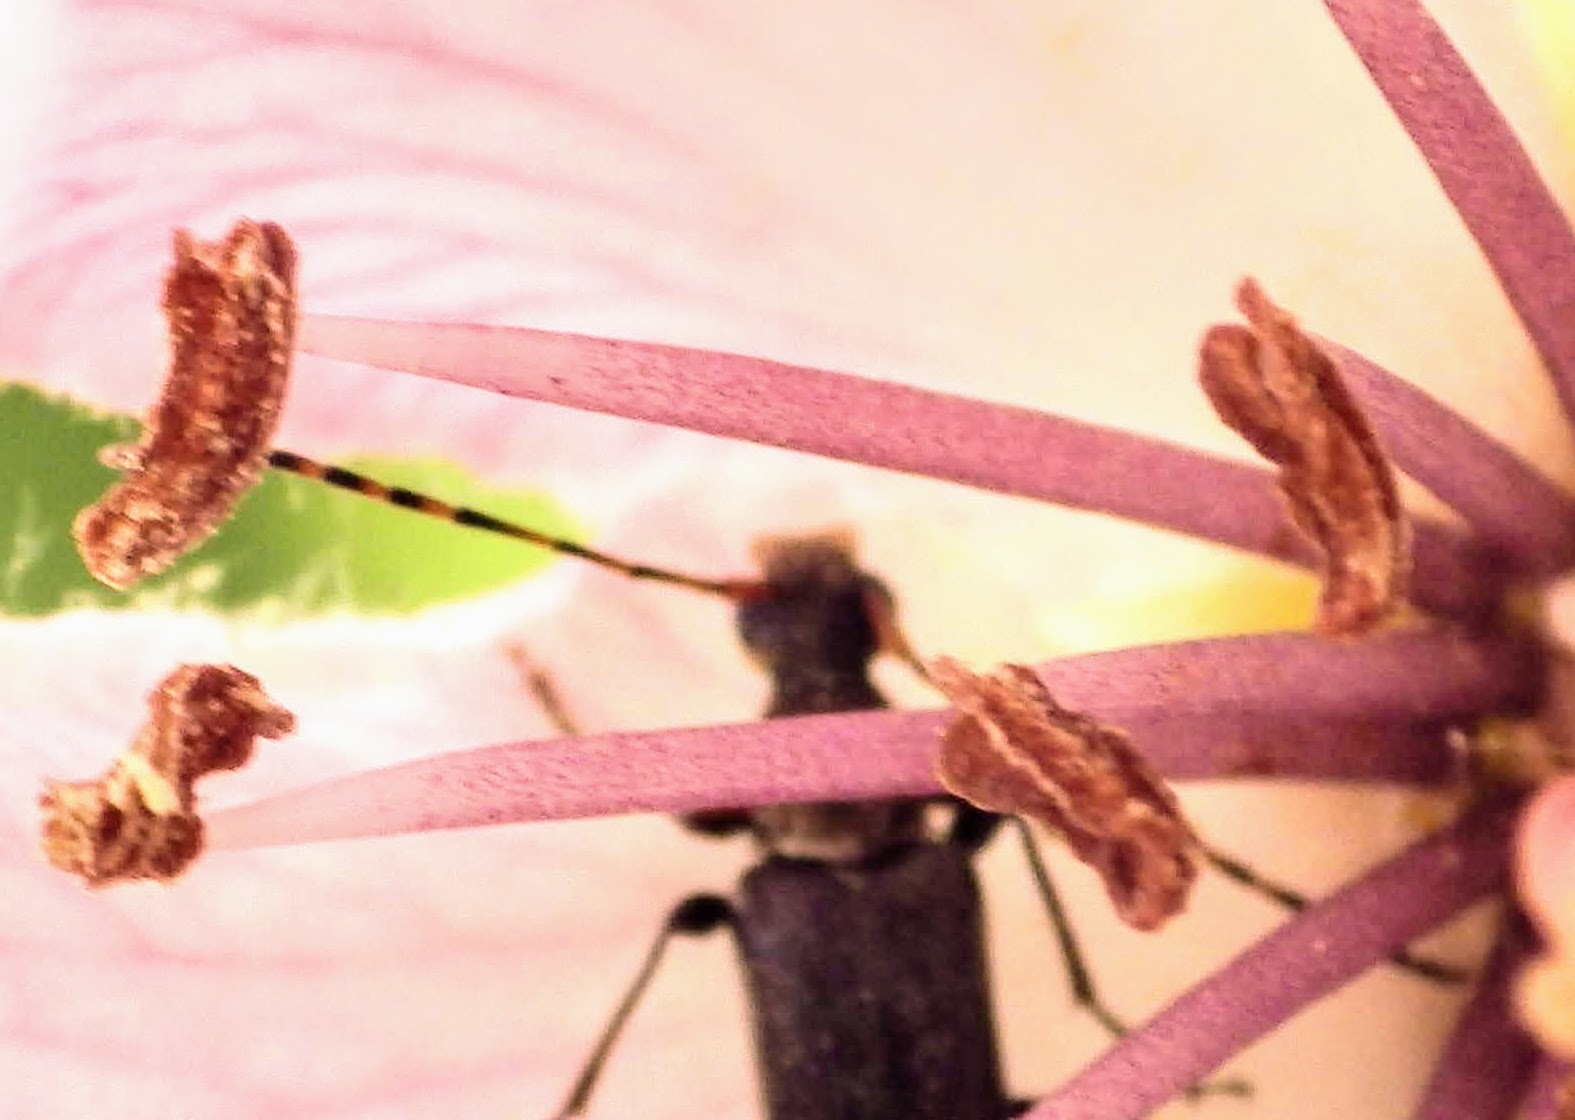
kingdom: Animalia
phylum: Arthropoda
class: Insecta
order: Coleoptera
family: Cerambycidae
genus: Grammoptera
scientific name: Grammoptera ruficornis
